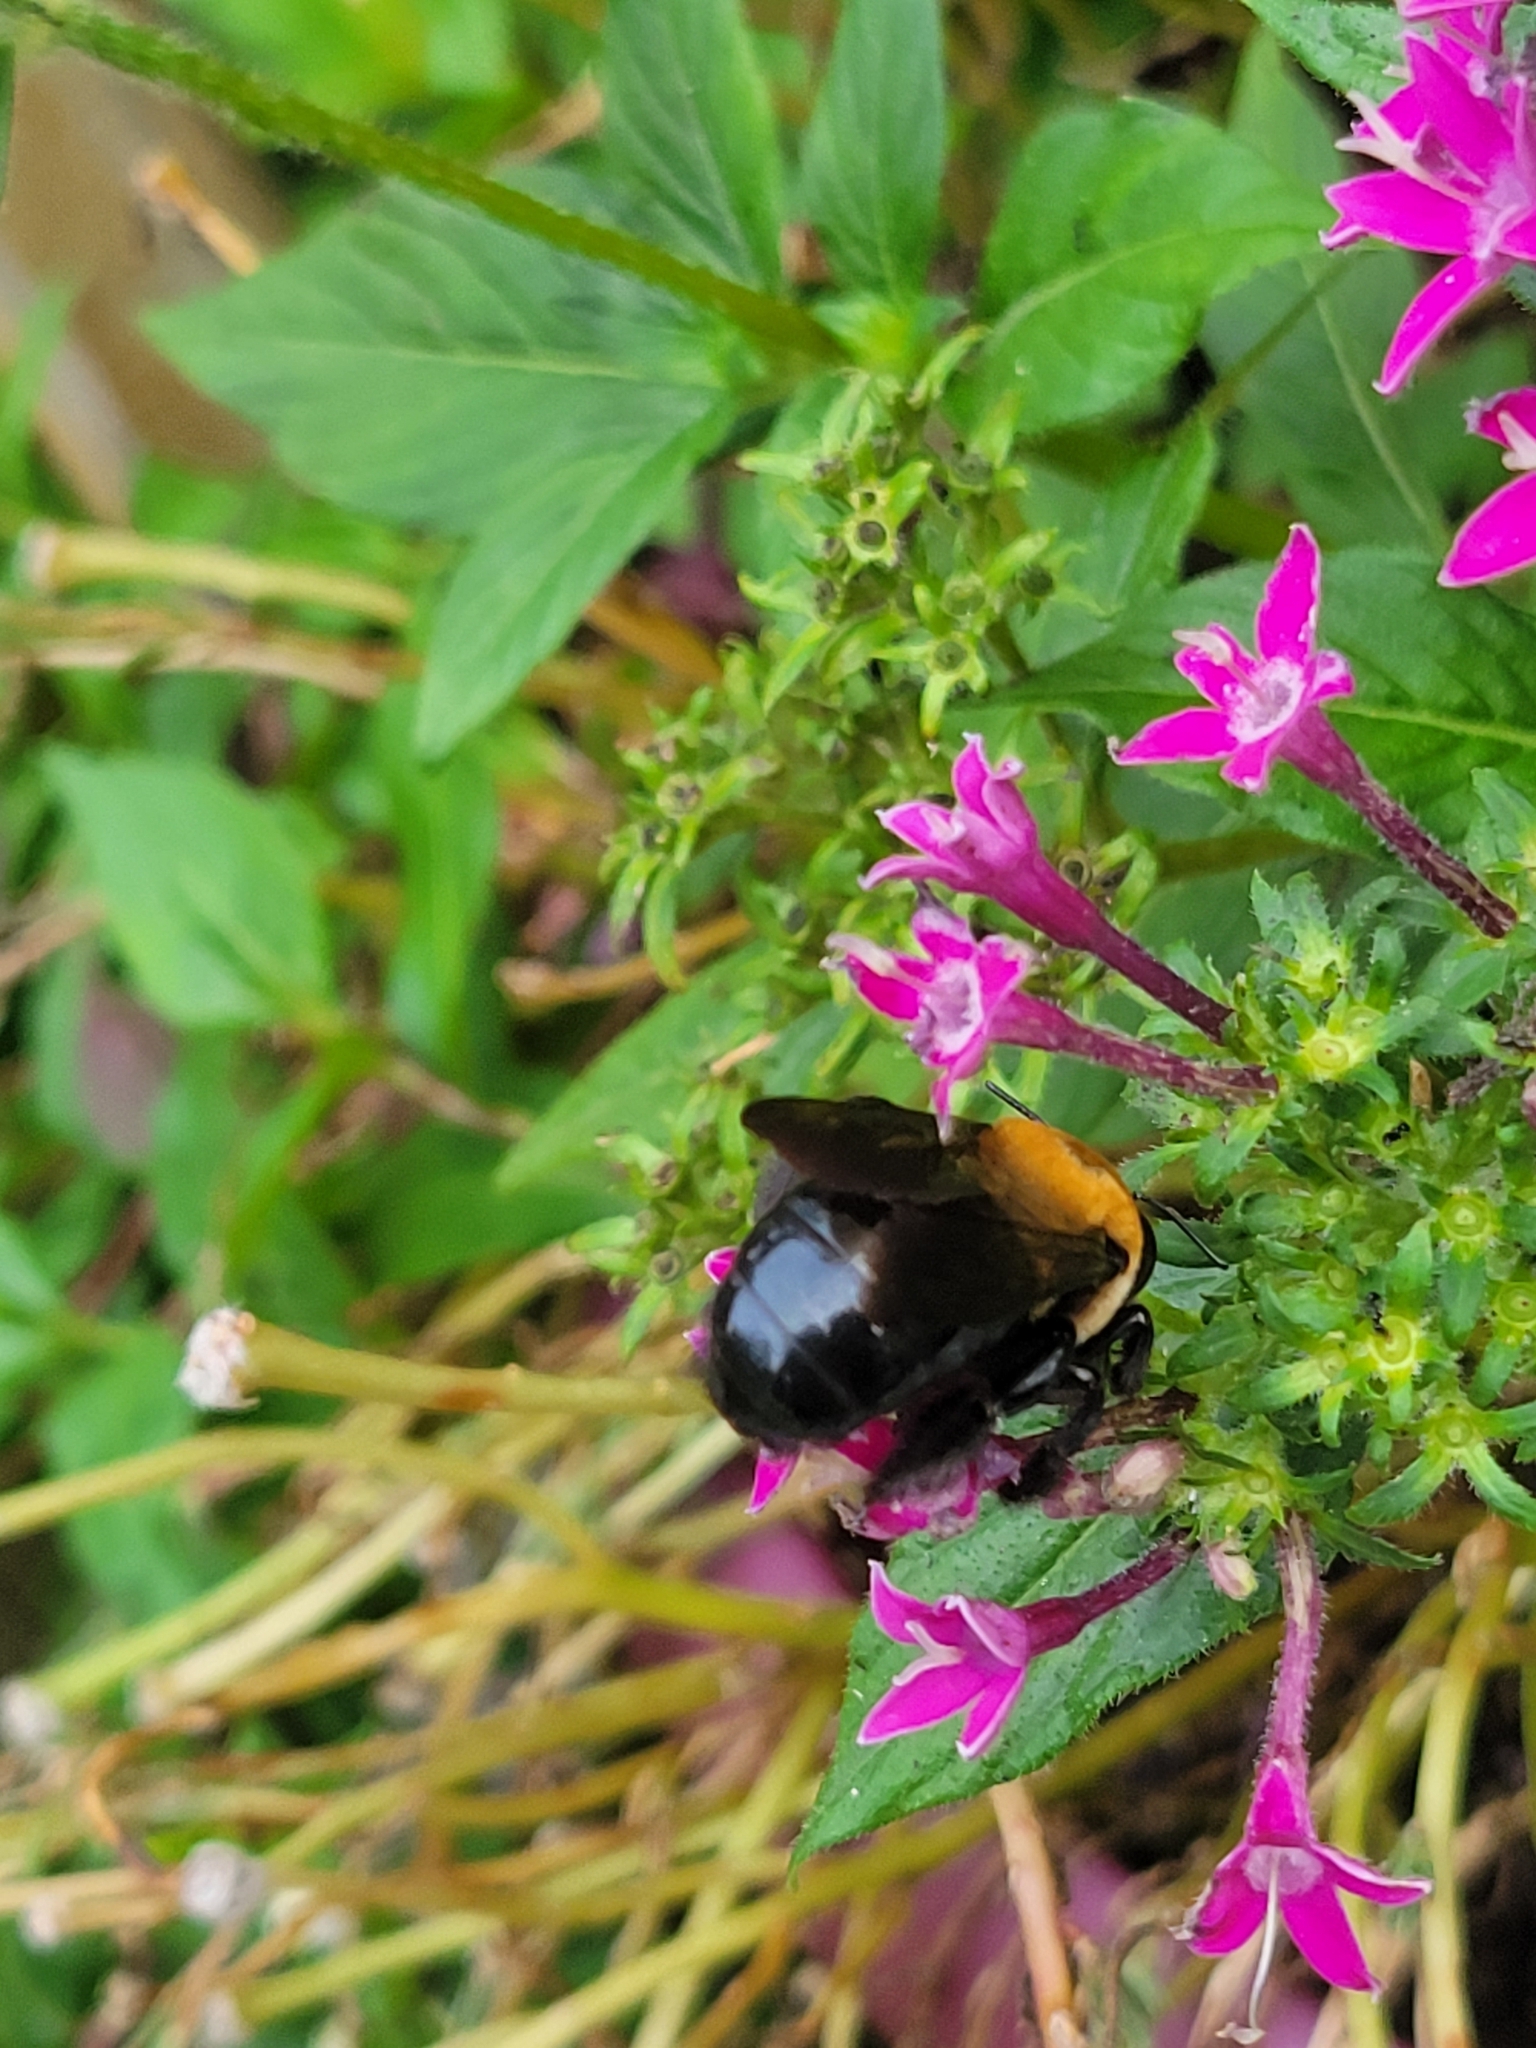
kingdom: Animalia
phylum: Arthropoda
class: Insecta
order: Hymenoptera
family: Apidae
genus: Xylocopa
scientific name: Xylocopa virginica
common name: Carpenter bee
